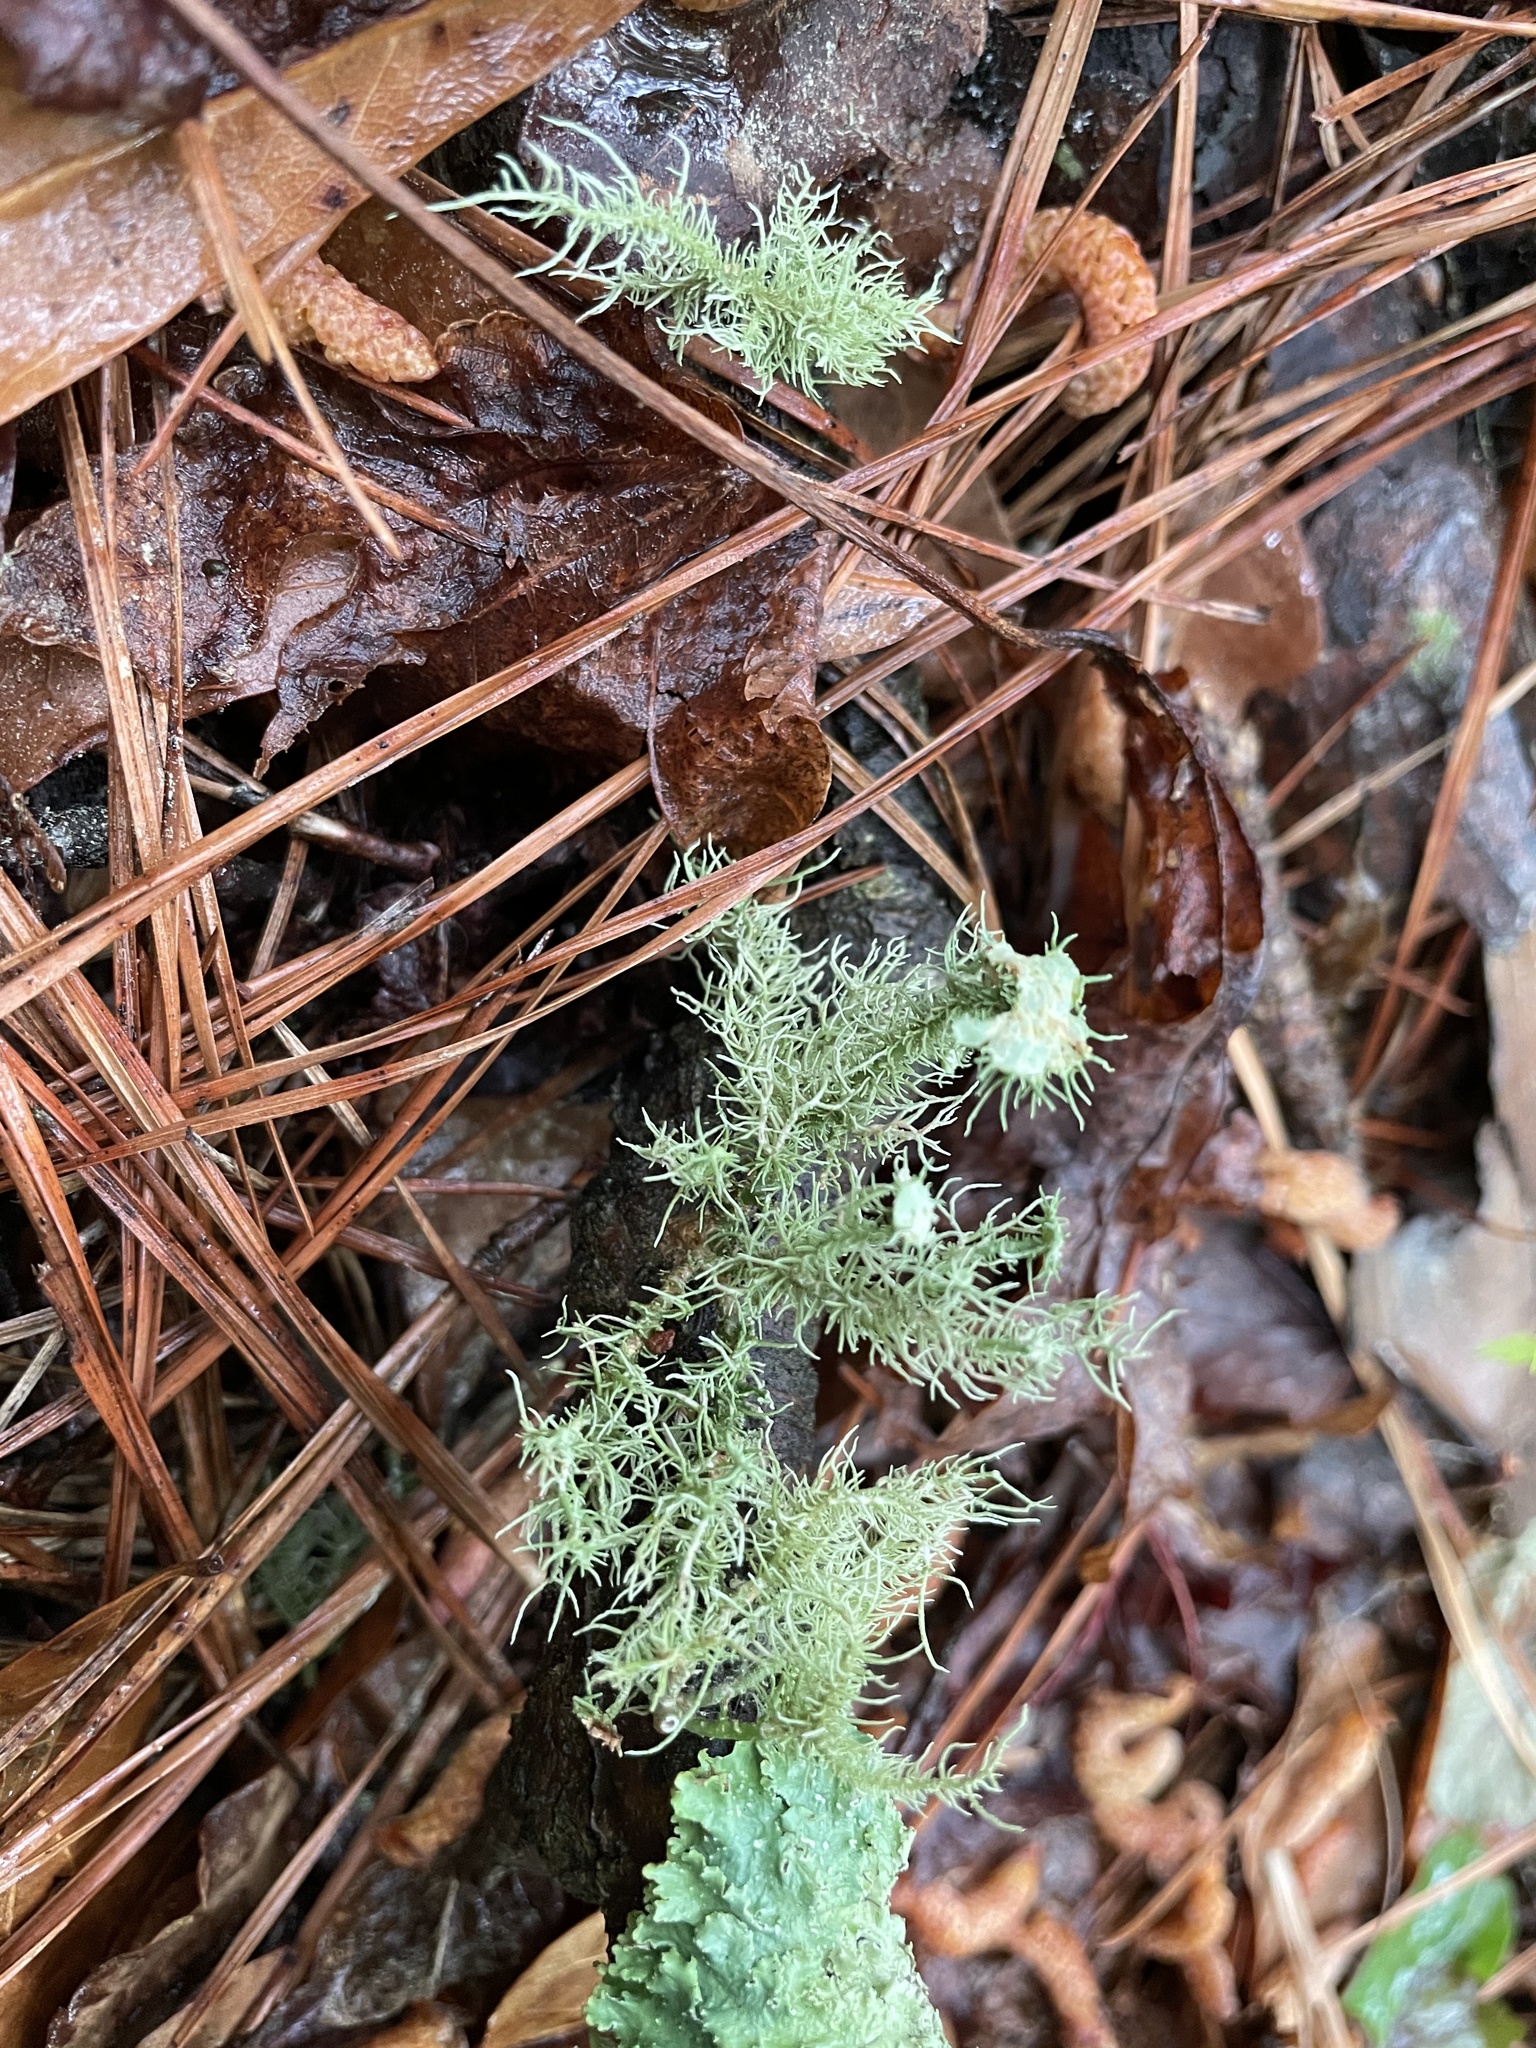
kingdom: Fungi
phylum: Ascomycota
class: Lecanoromycetes
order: Lecanorales
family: Parmeliaceae
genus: Usnea
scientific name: Usnea strigosa
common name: Bushy beard lichen
